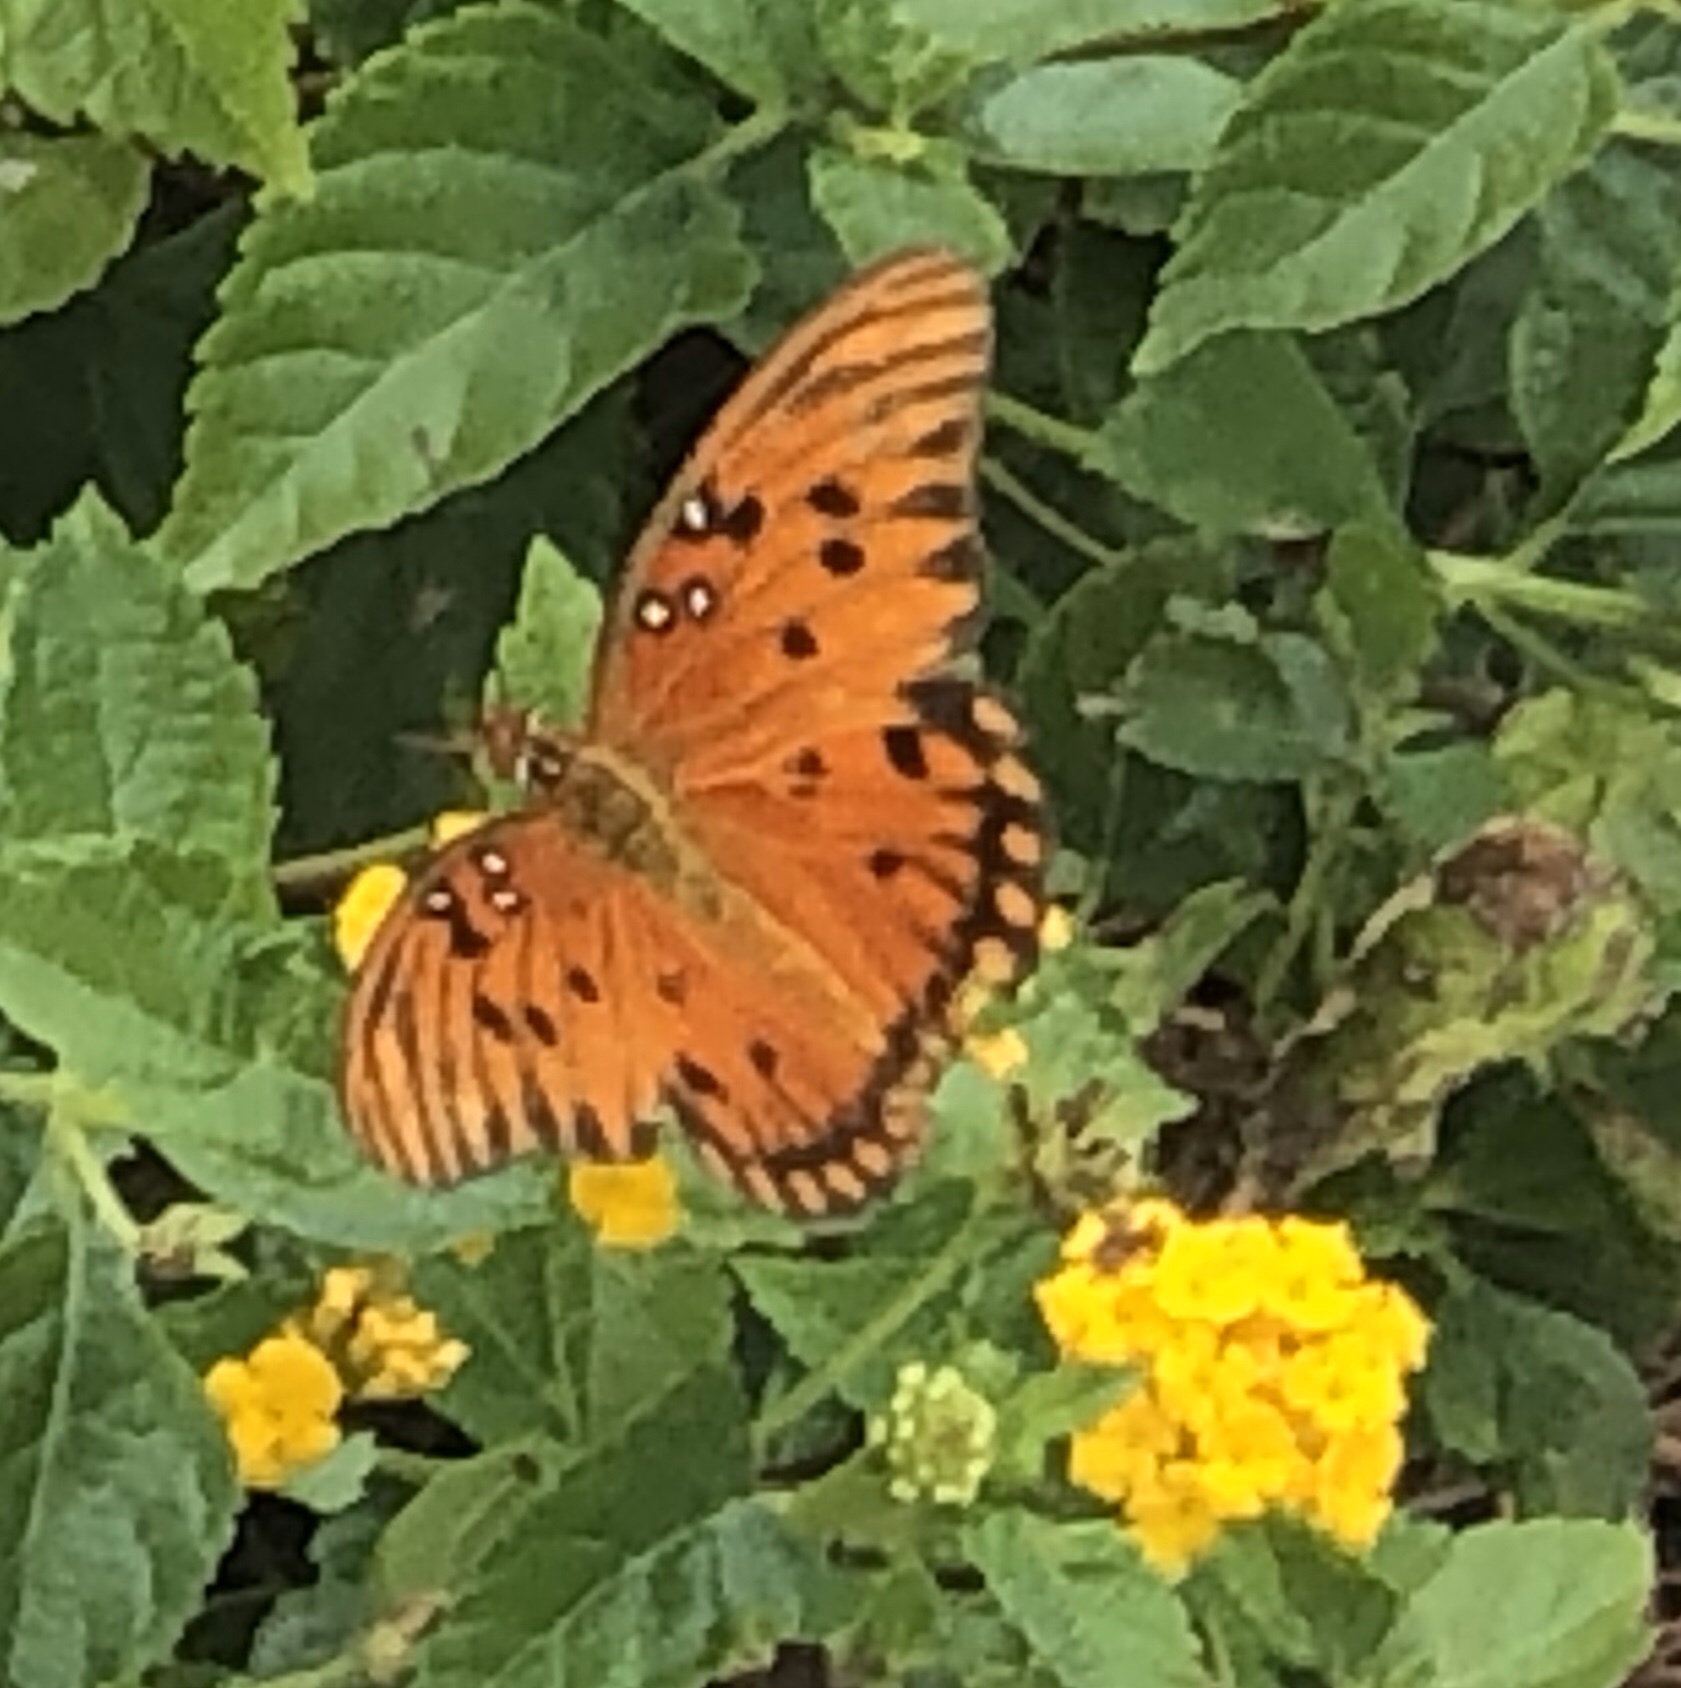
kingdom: Animalia
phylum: Arthropoda
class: Insecta
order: Lepidoptera
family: Nymphalidae
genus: Dione
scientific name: Dione vanillae
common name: Gulf fritillary
